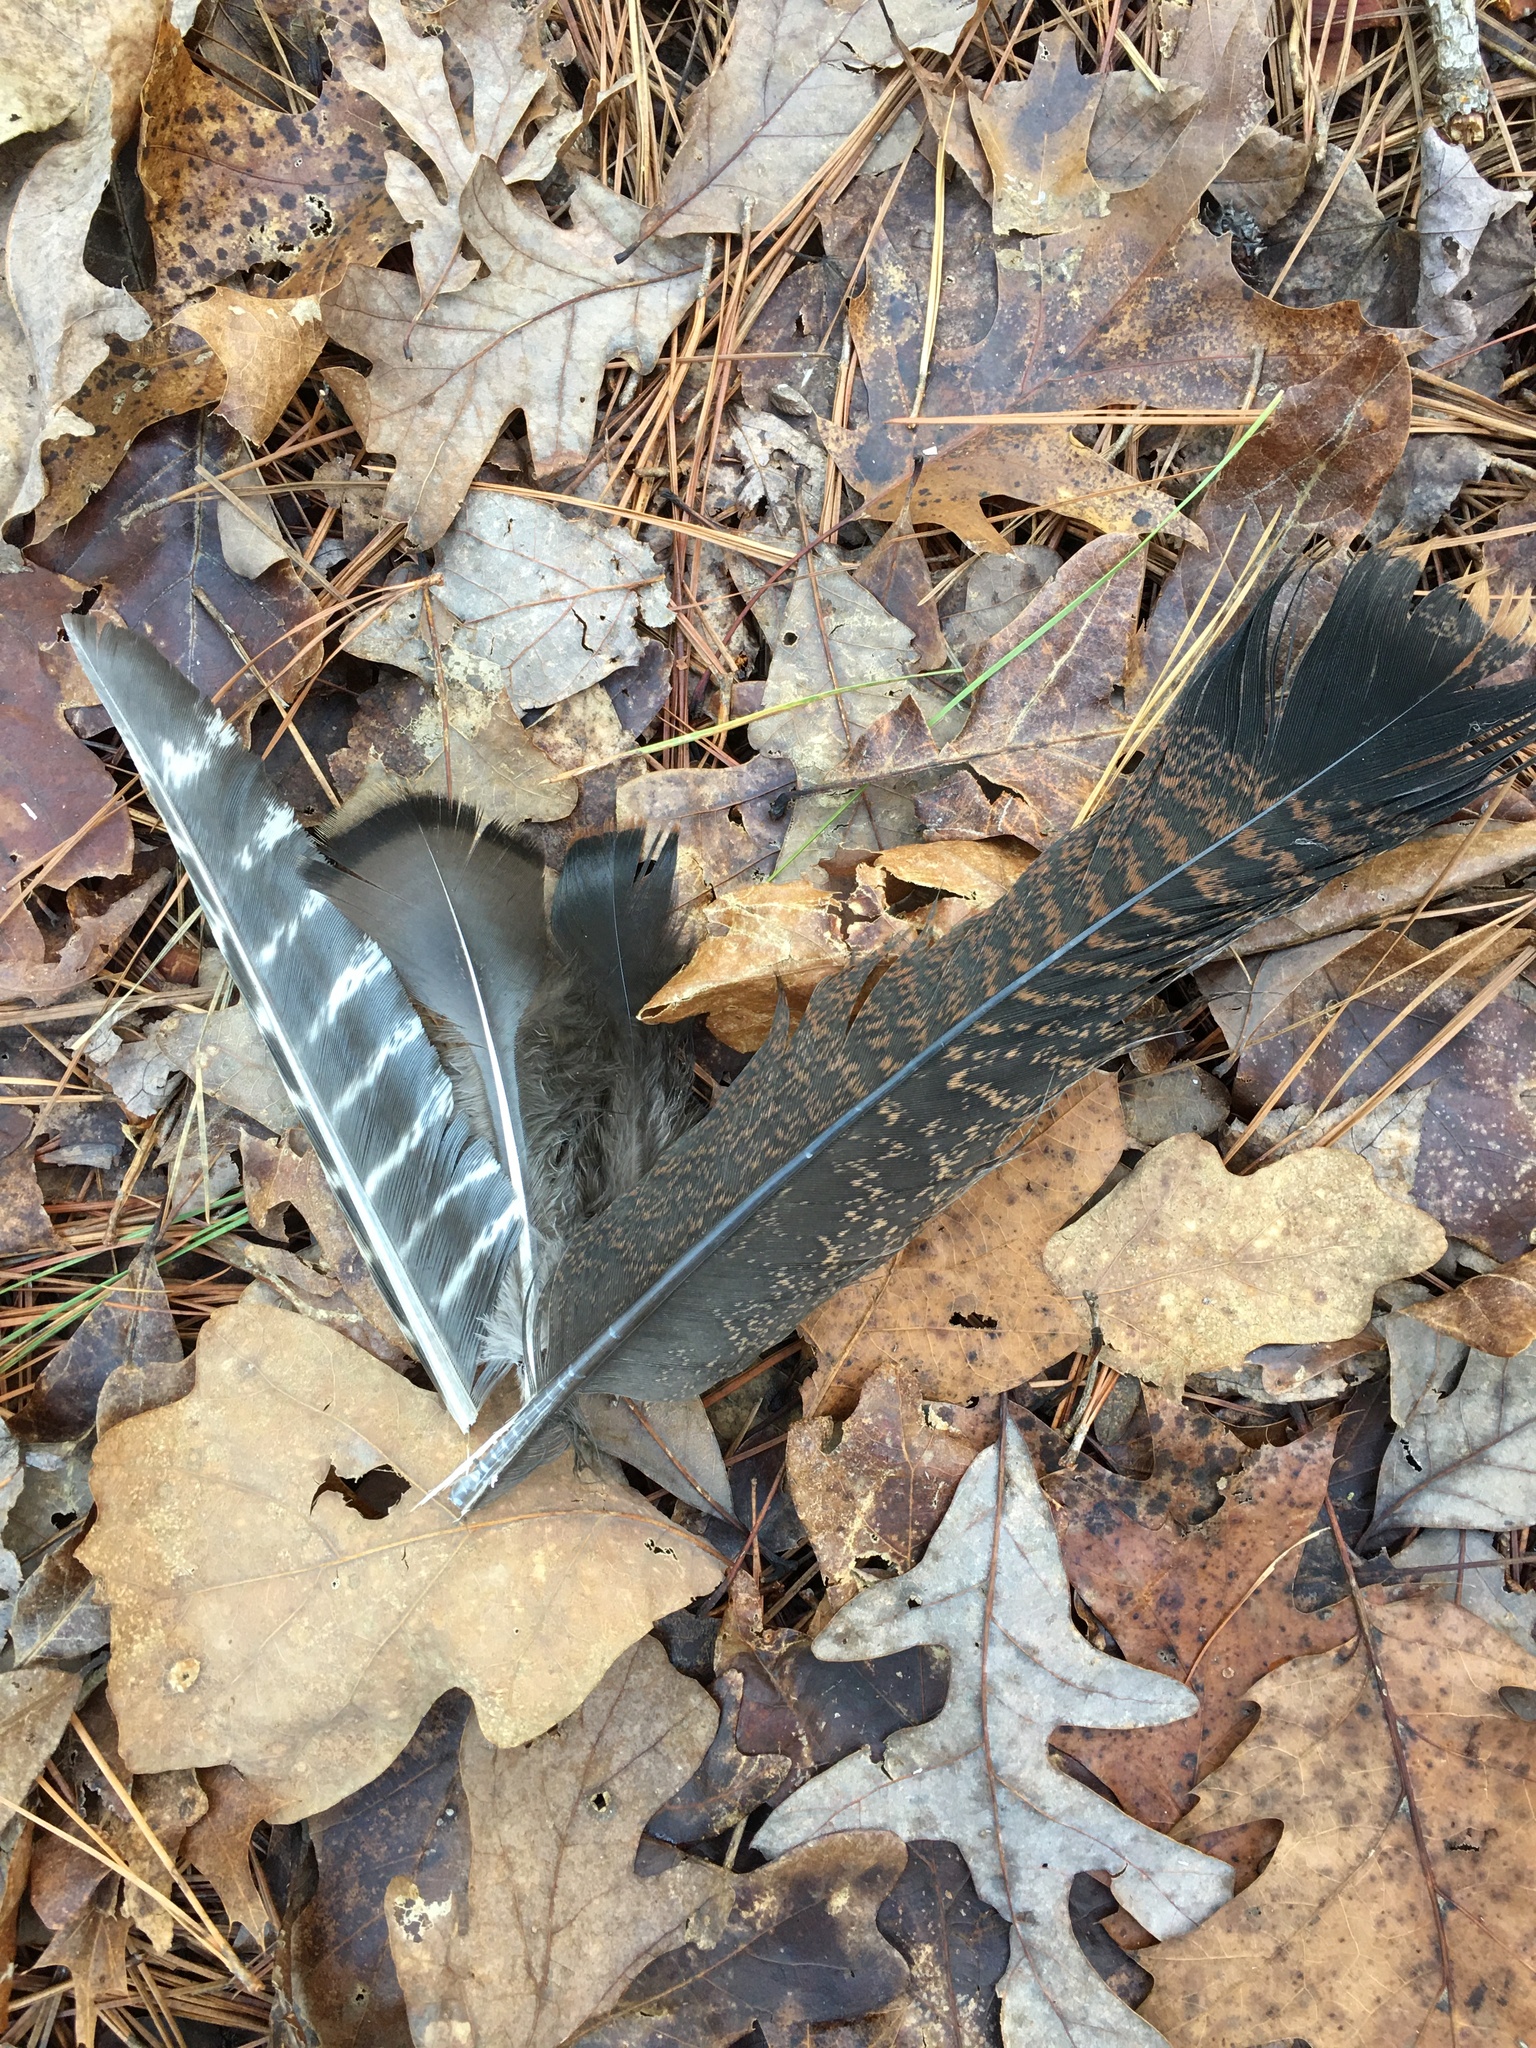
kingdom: Animalia
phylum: Chordata
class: Aves
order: Galliformes
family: Phasianidae
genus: Meleagris
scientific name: Meleagris gallopavo
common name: Wild turkey
